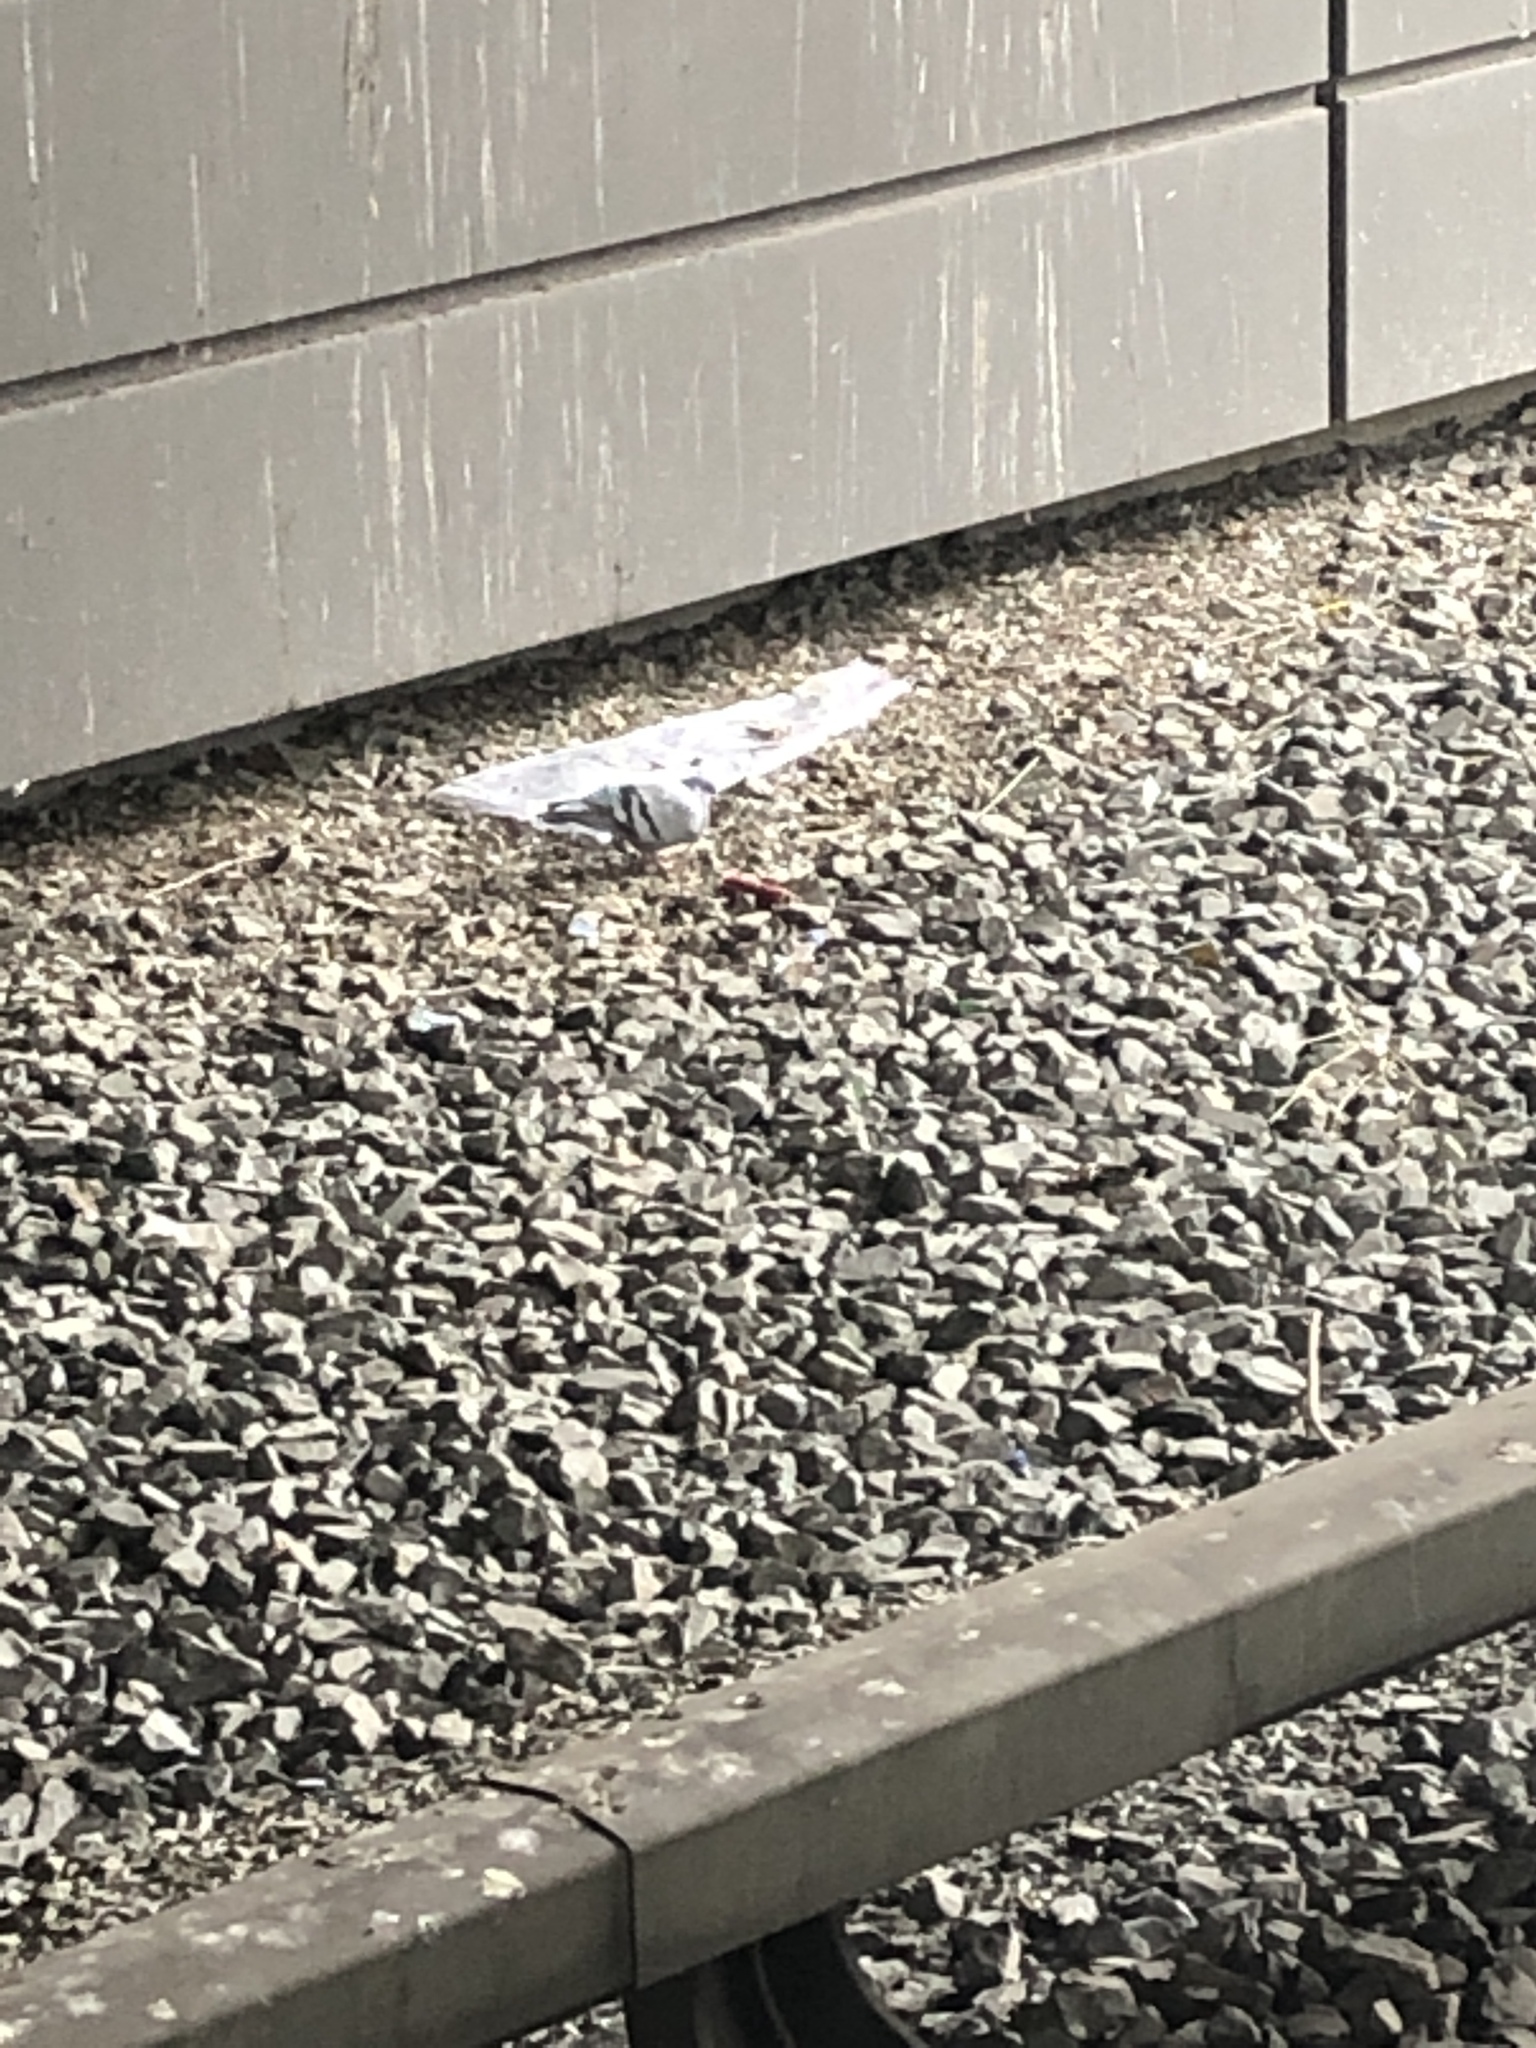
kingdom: Animalia
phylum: Chordata
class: Aves
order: Columbiformes
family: Columbidae
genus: Columba
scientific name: Columba livia
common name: Rock pigeon
